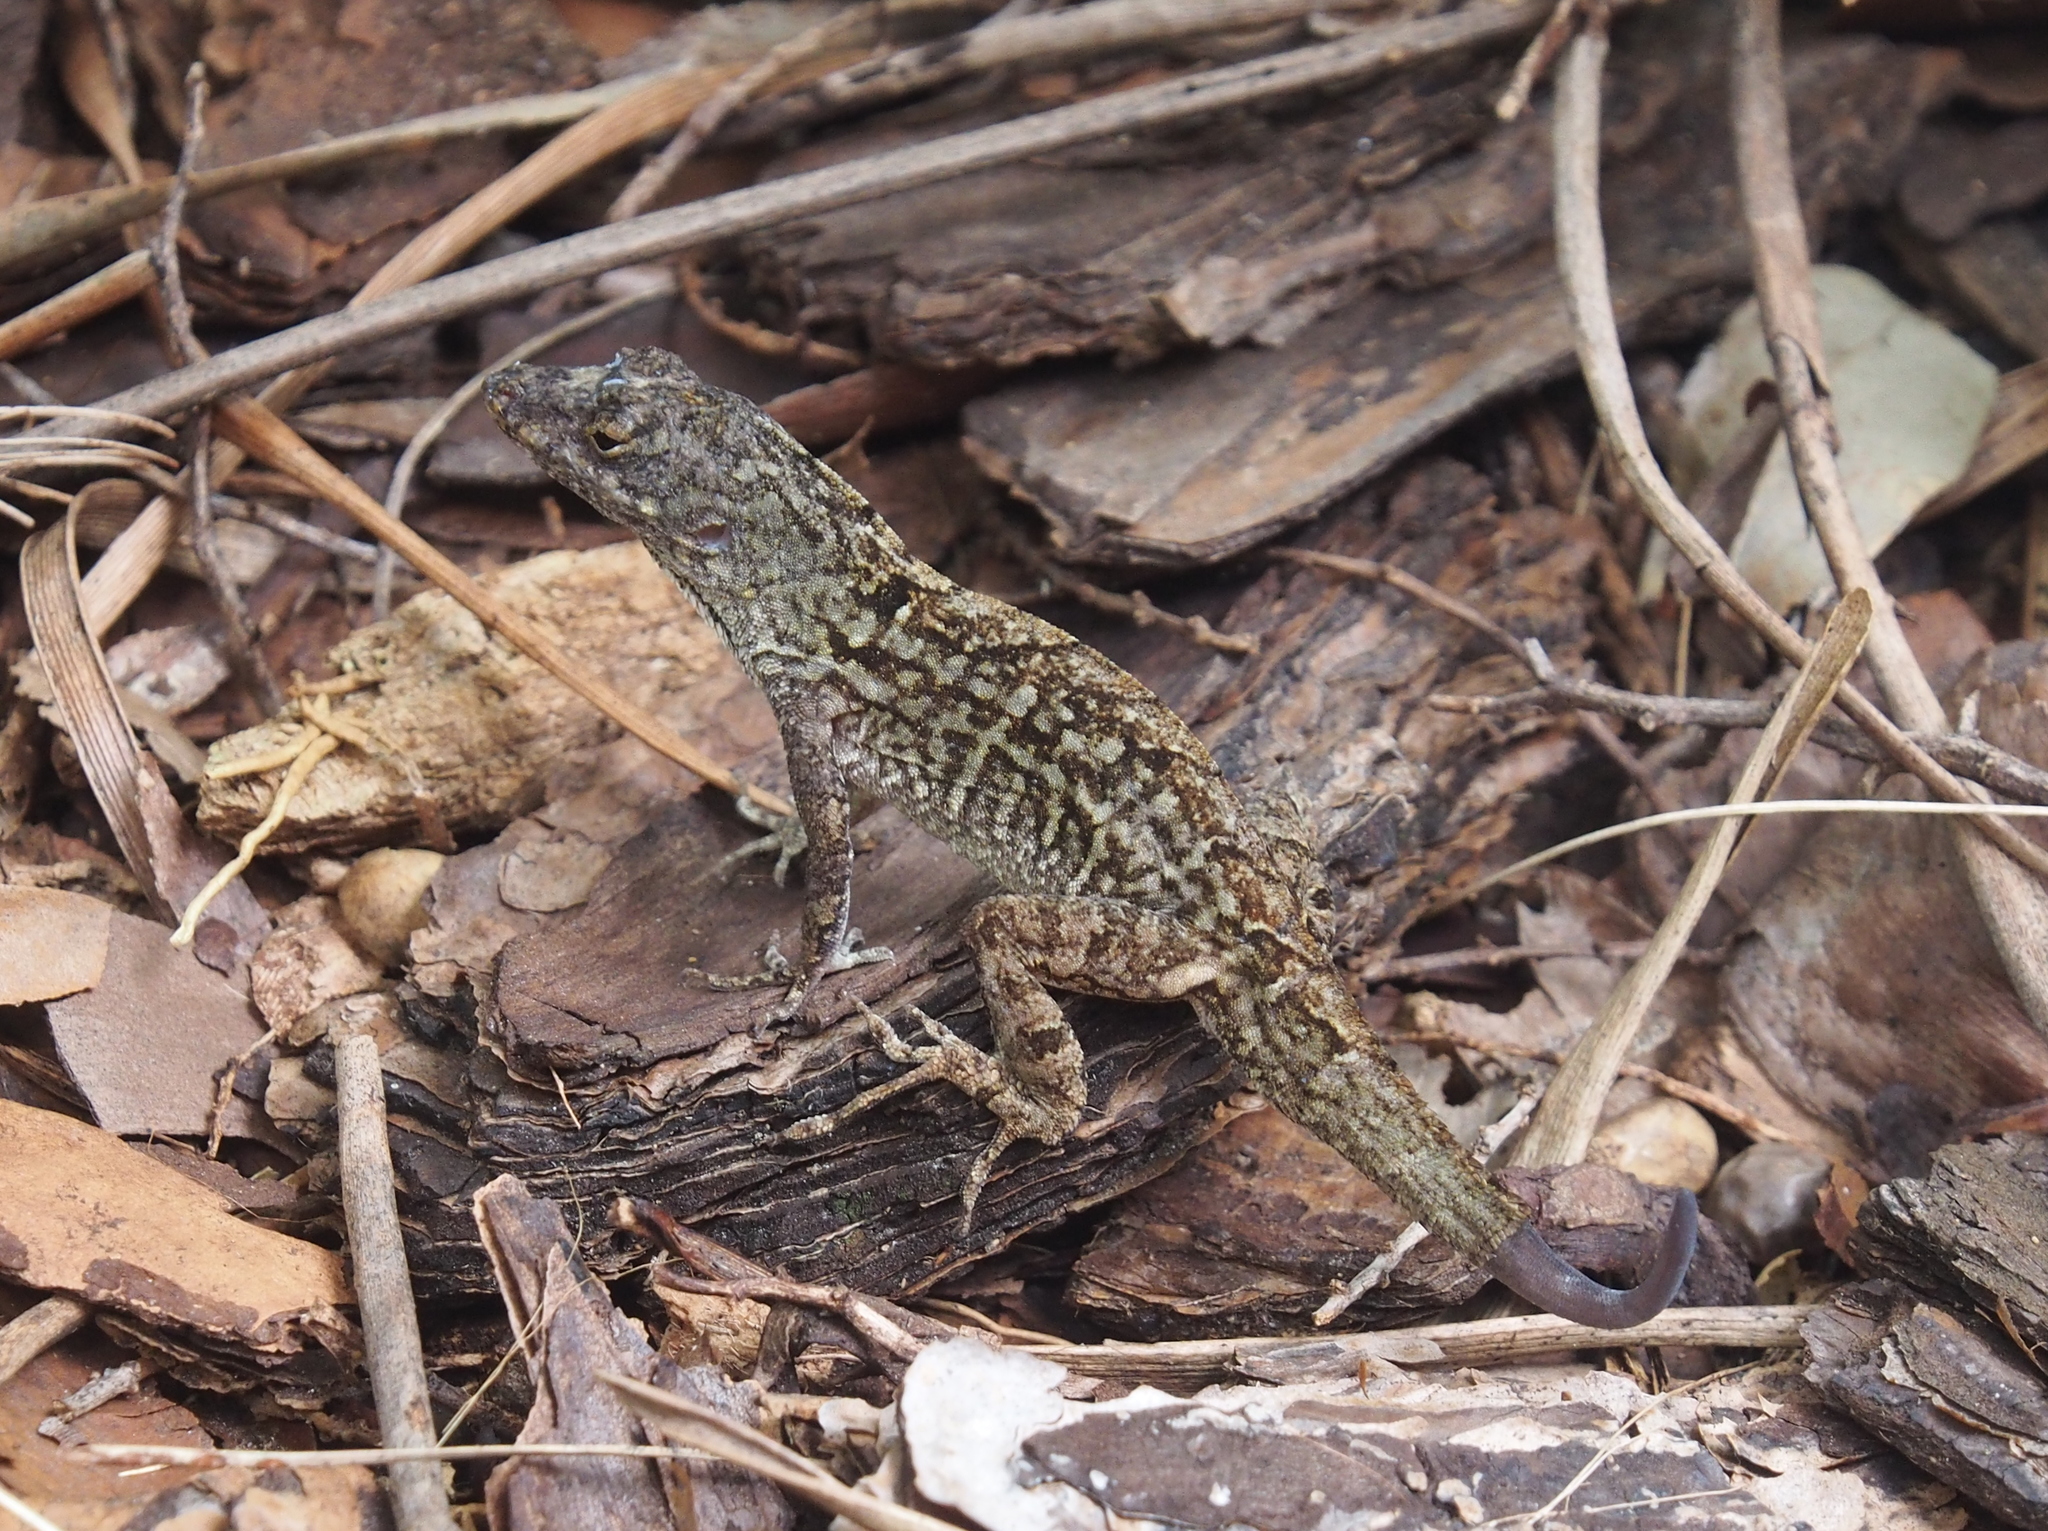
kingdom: Animalia
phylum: Chordata
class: Squamata
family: Dactyloidae
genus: Anolis
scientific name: Anolis sagrei
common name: Brown anole
